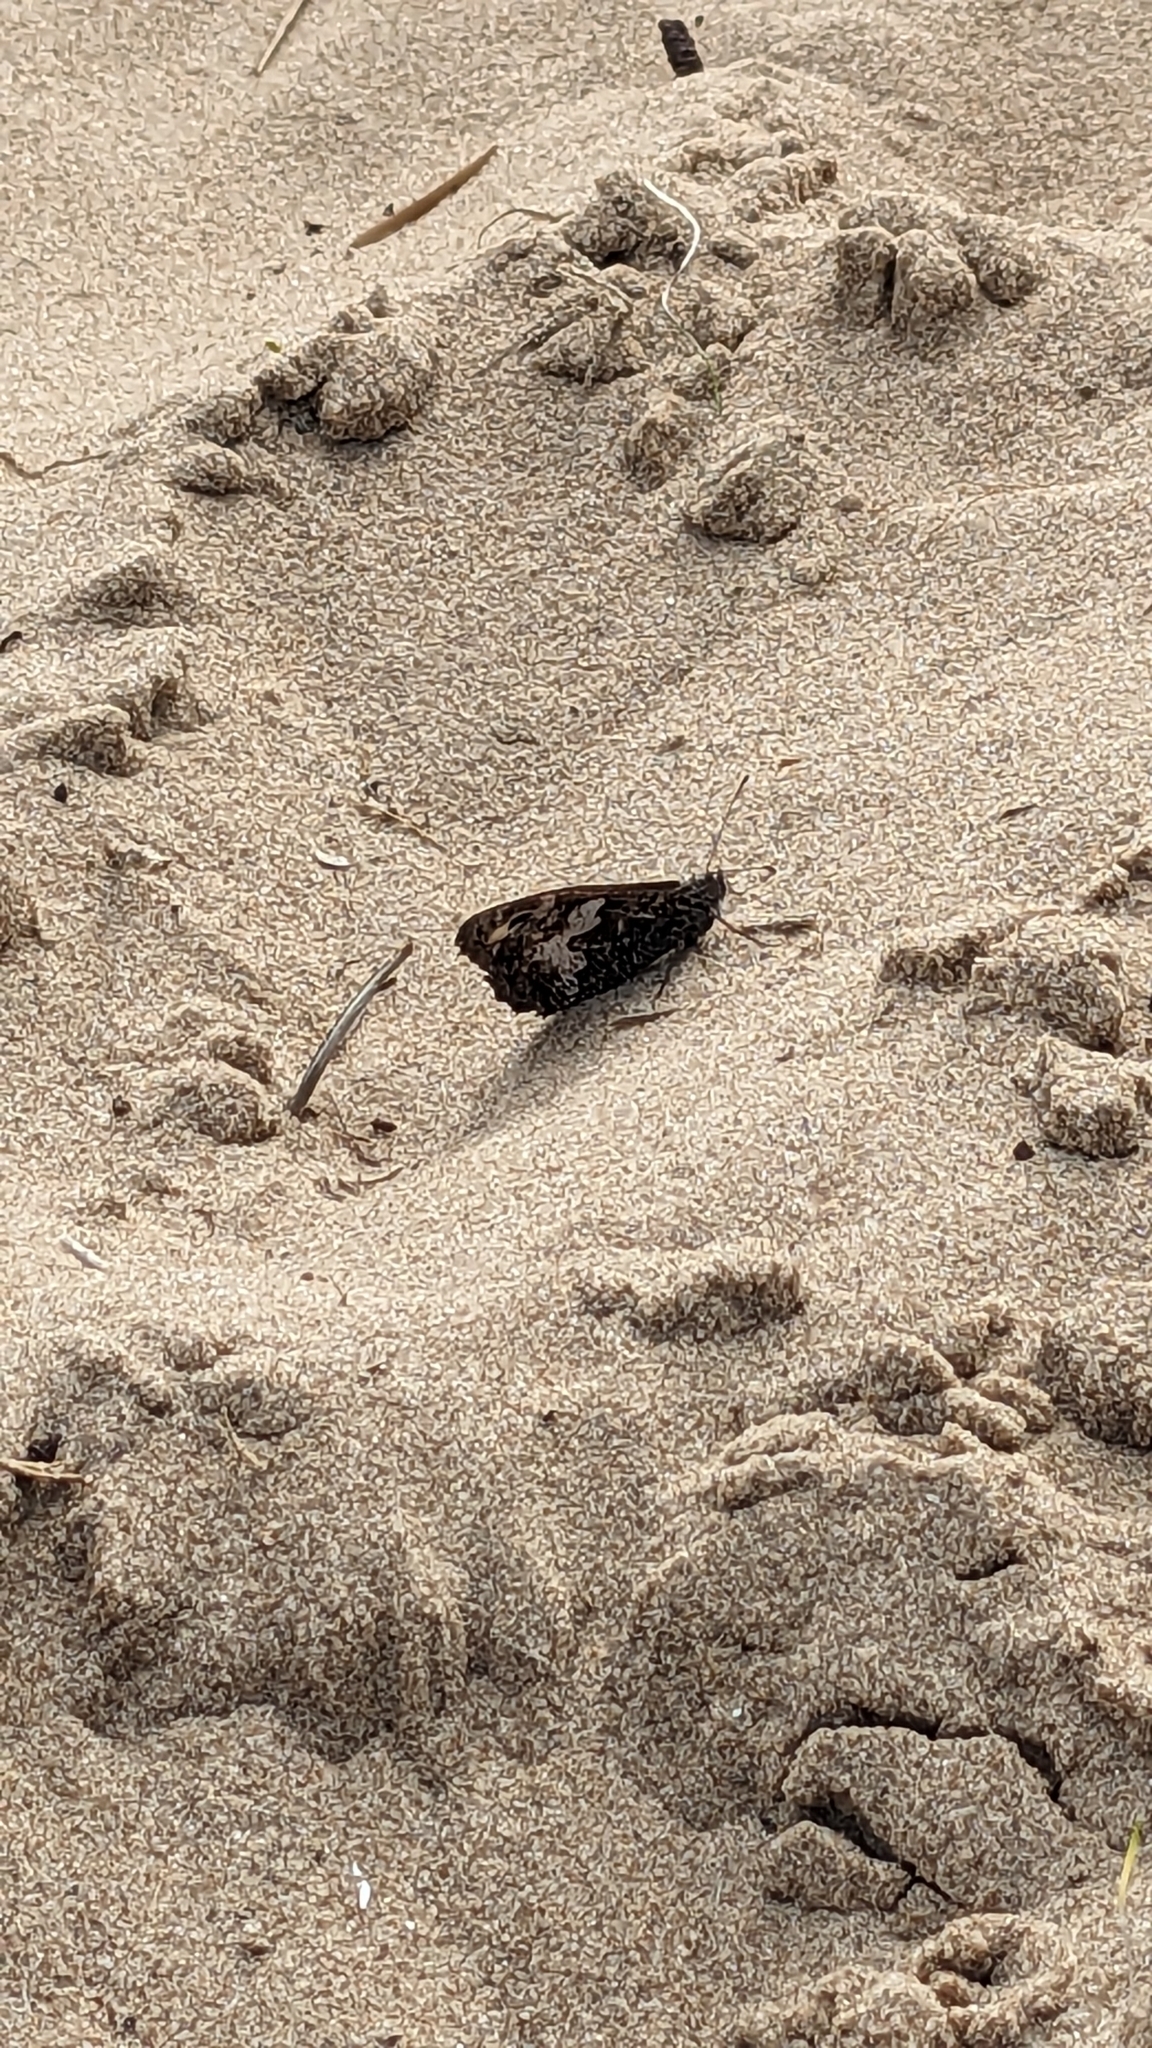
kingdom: Animalia
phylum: Arthropoda
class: Insecta
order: Lepidoptera
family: Nymphalidae
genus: Hipparchia
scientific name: Hipparchia semele
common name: Grayling
